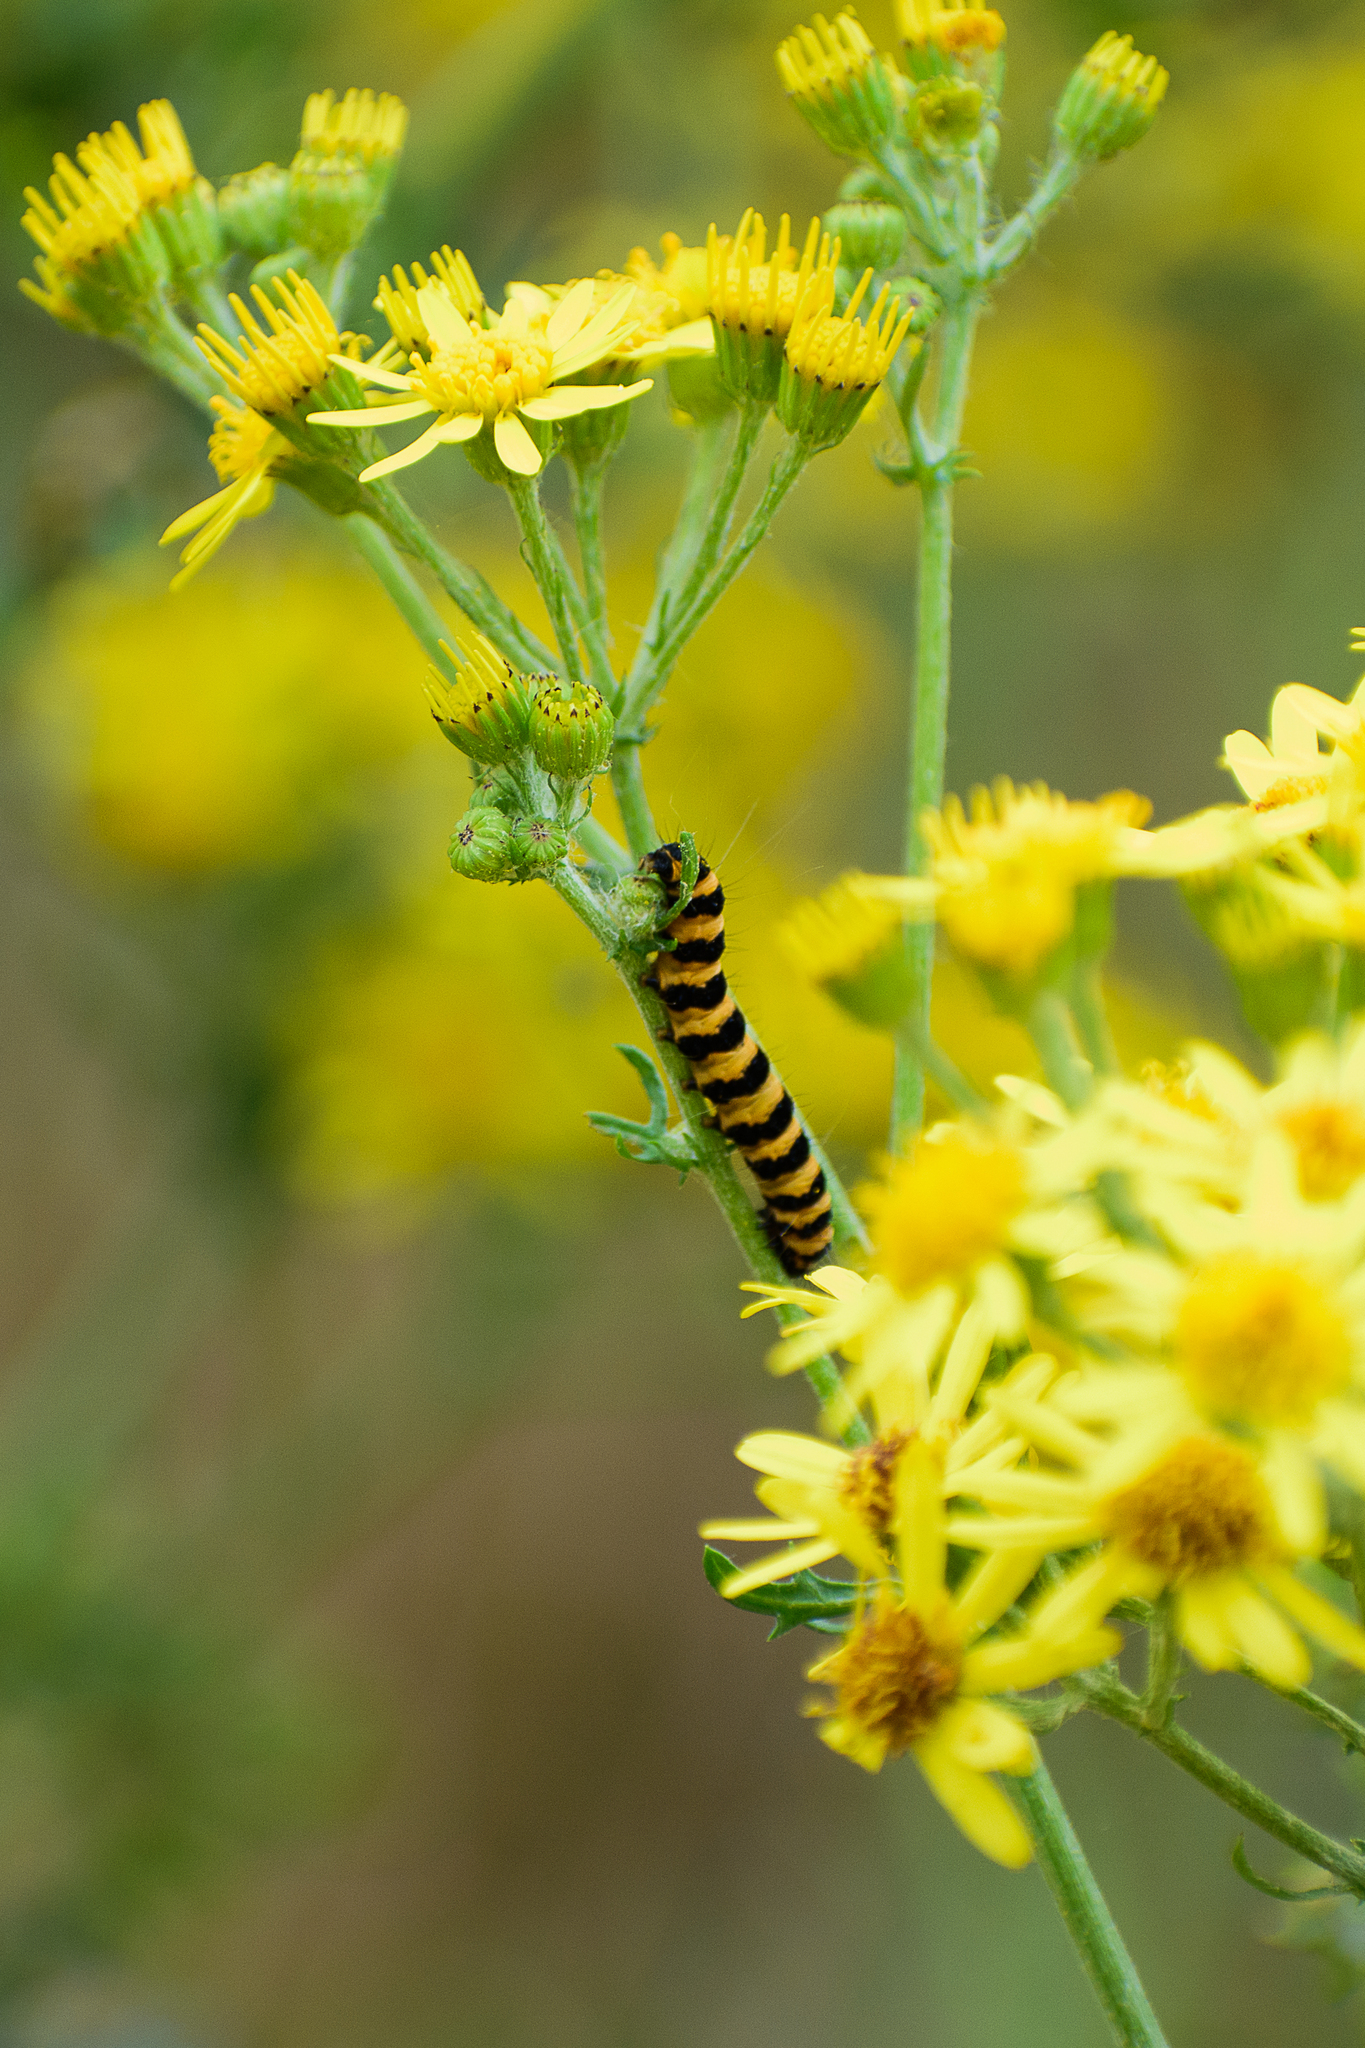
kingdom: Animalia
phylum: Arthropoda
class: Insecta
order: Lepidoptera
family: Erebidae
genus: Tyria
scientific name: Tyria jacobaeae
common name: Cinnabar
